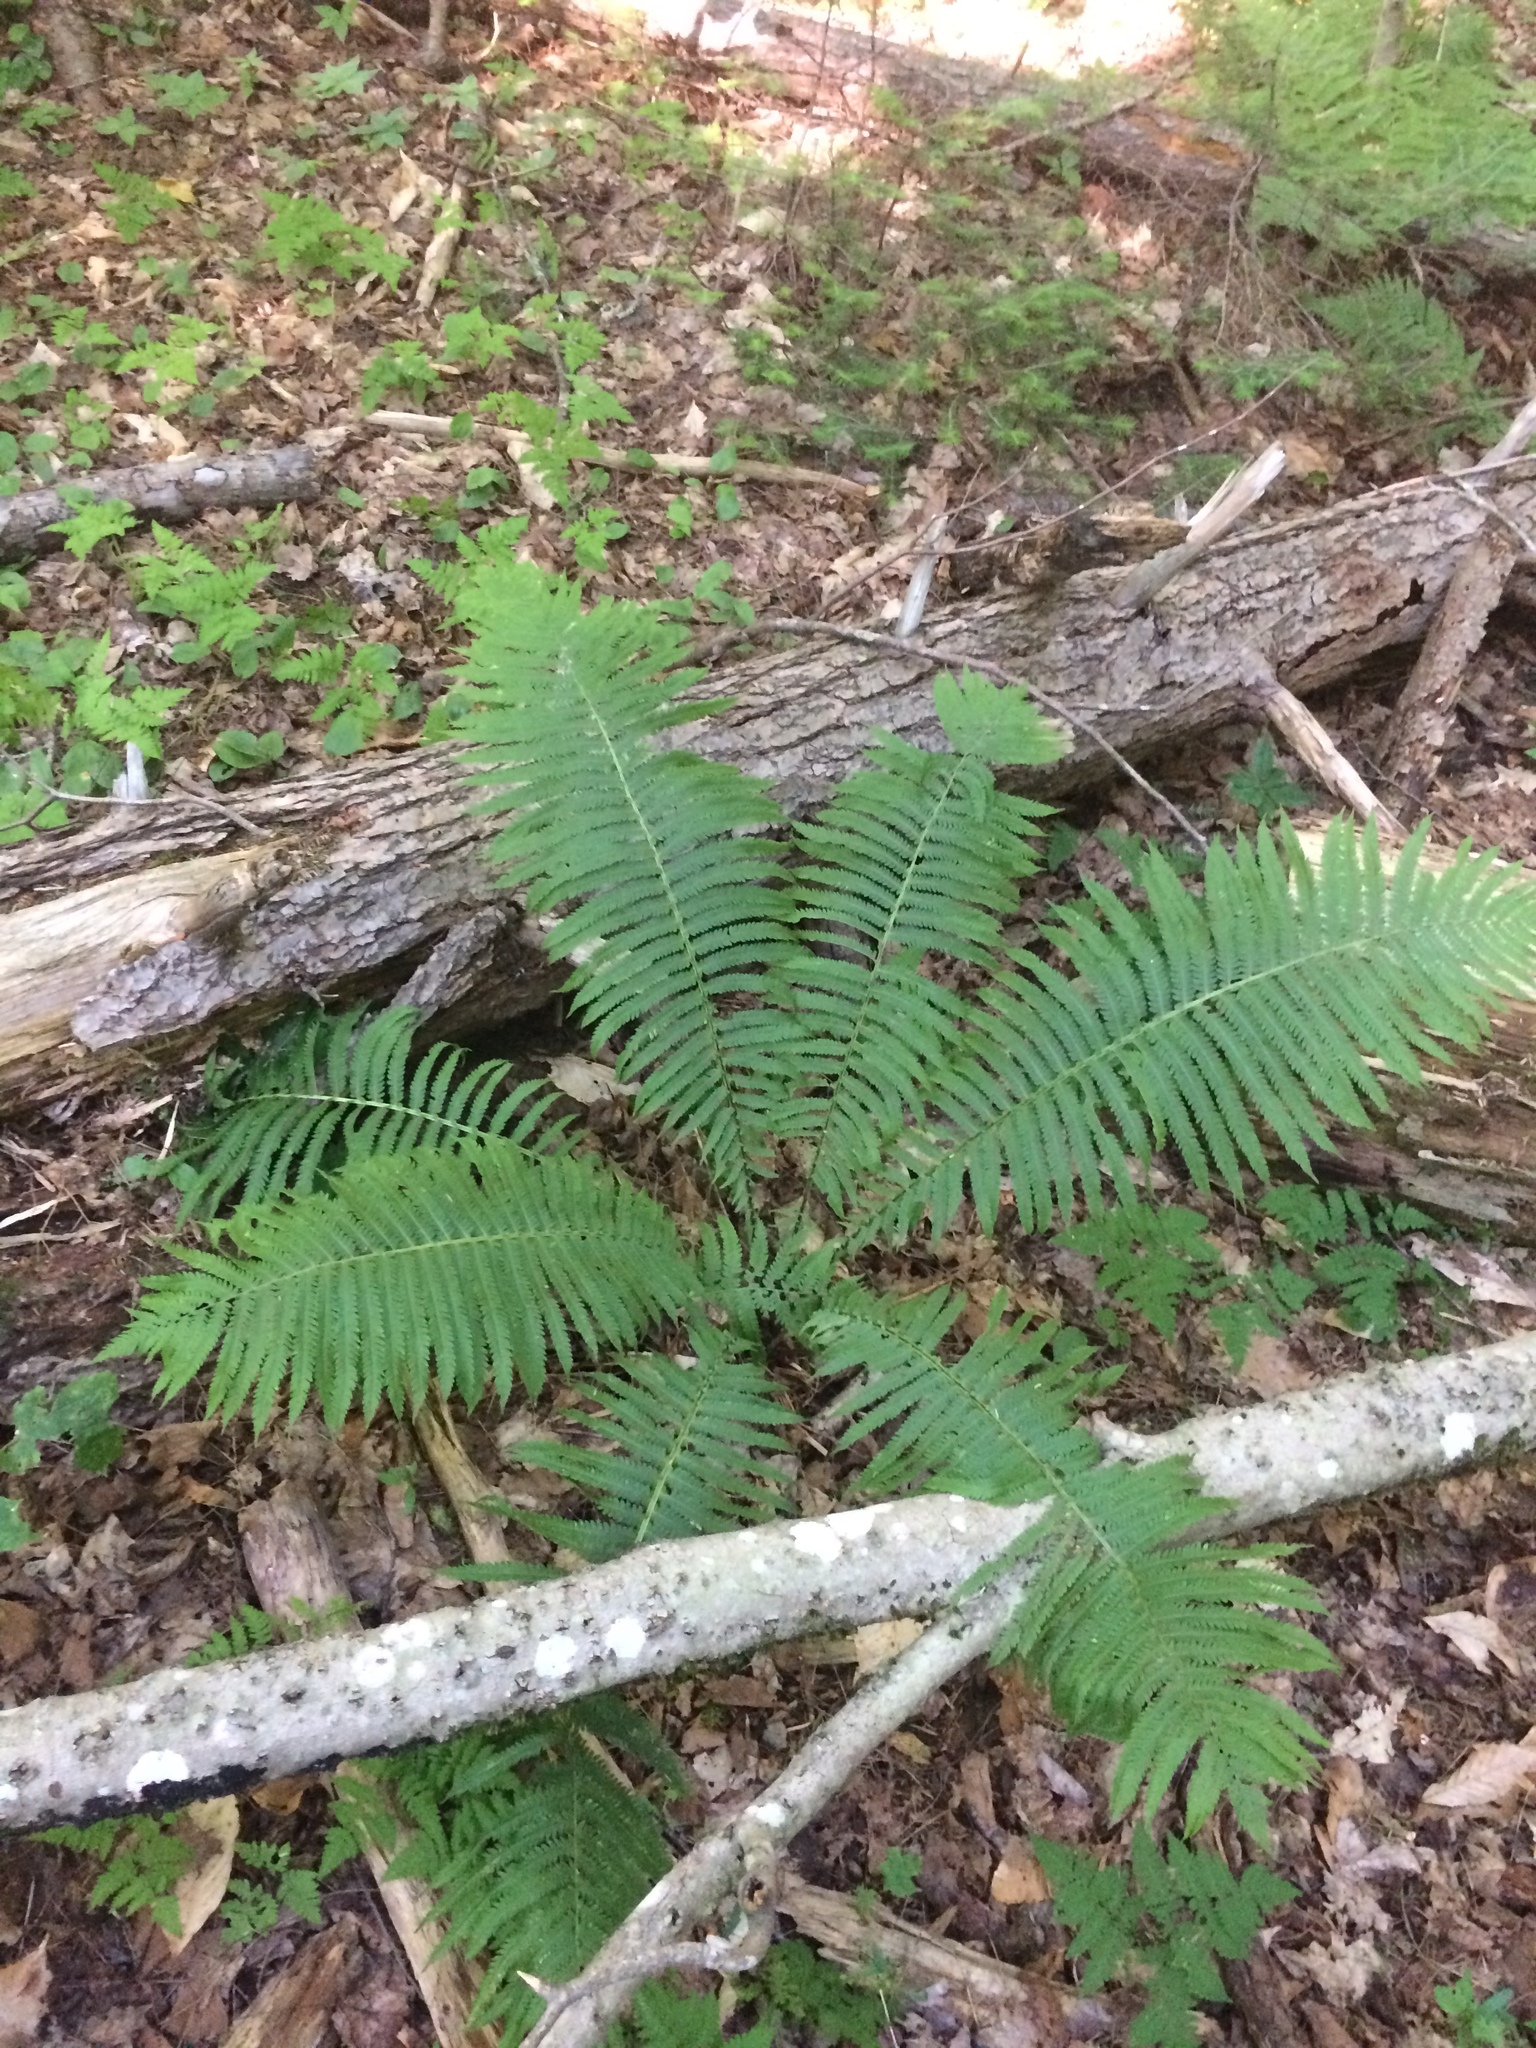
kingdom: Plantae
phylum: Tracheophyta
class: Polypodiopsida
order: Polypodiales
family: Onocleaceae
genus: Matteuccia
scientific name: Matteuccia struthiopteris
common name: Ostrich fern
